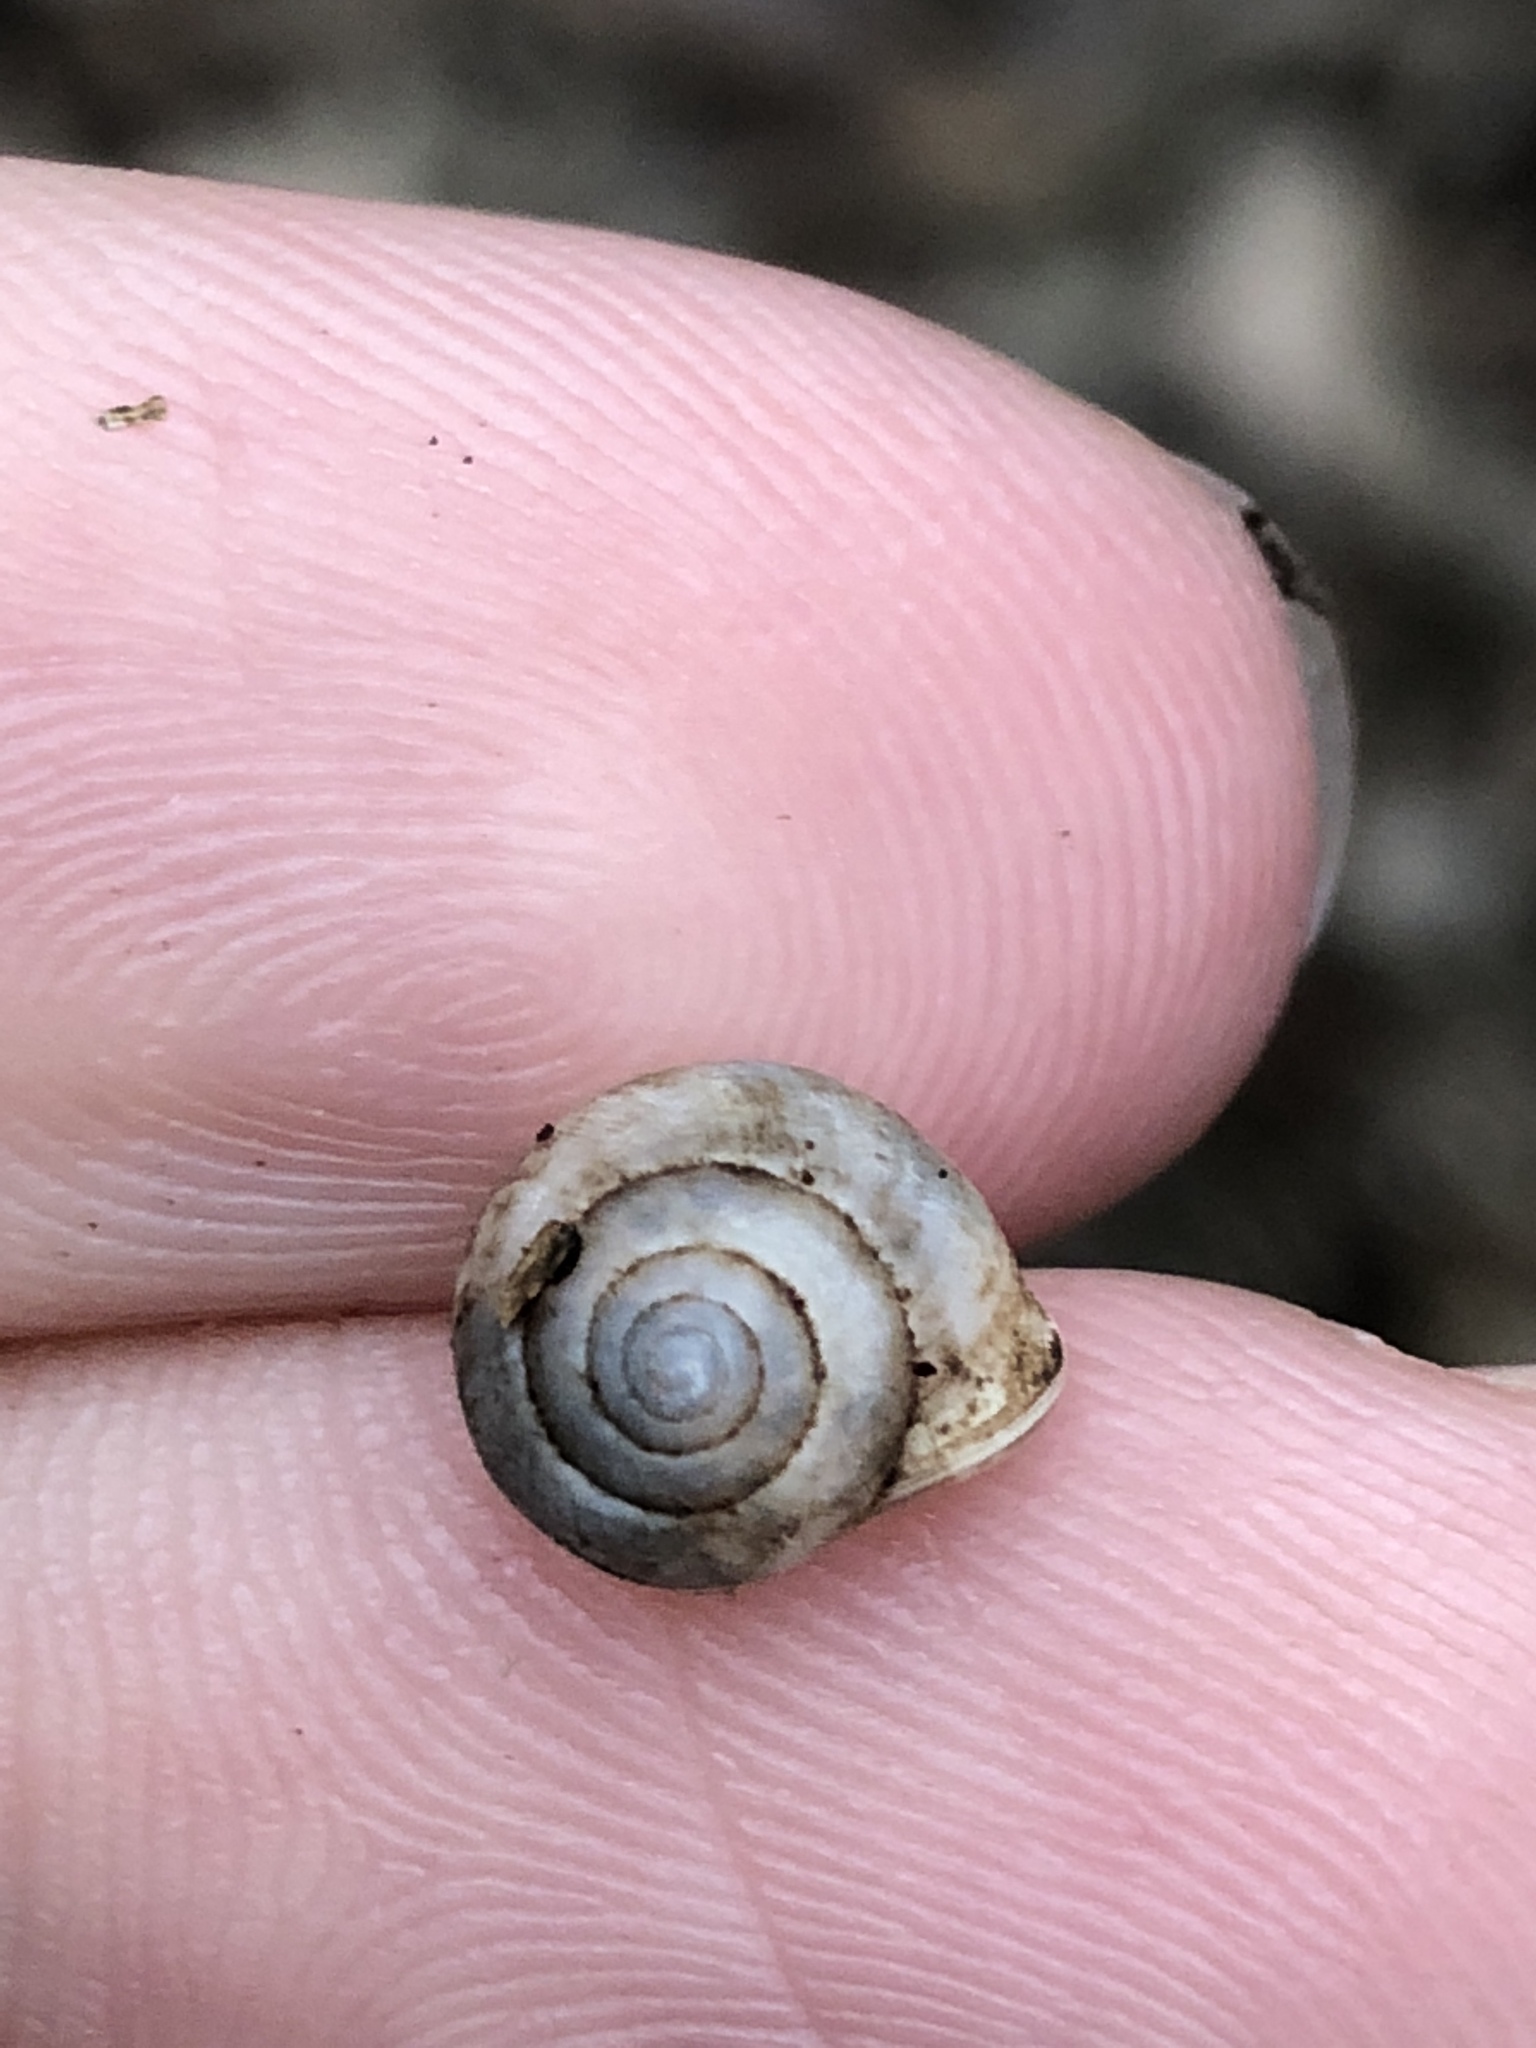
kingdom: Animalia
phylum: Mollusca
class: Gastropoda
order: Cycloneritida
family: Helicinidae
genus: Helicina
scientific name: Helicina orbiculata
